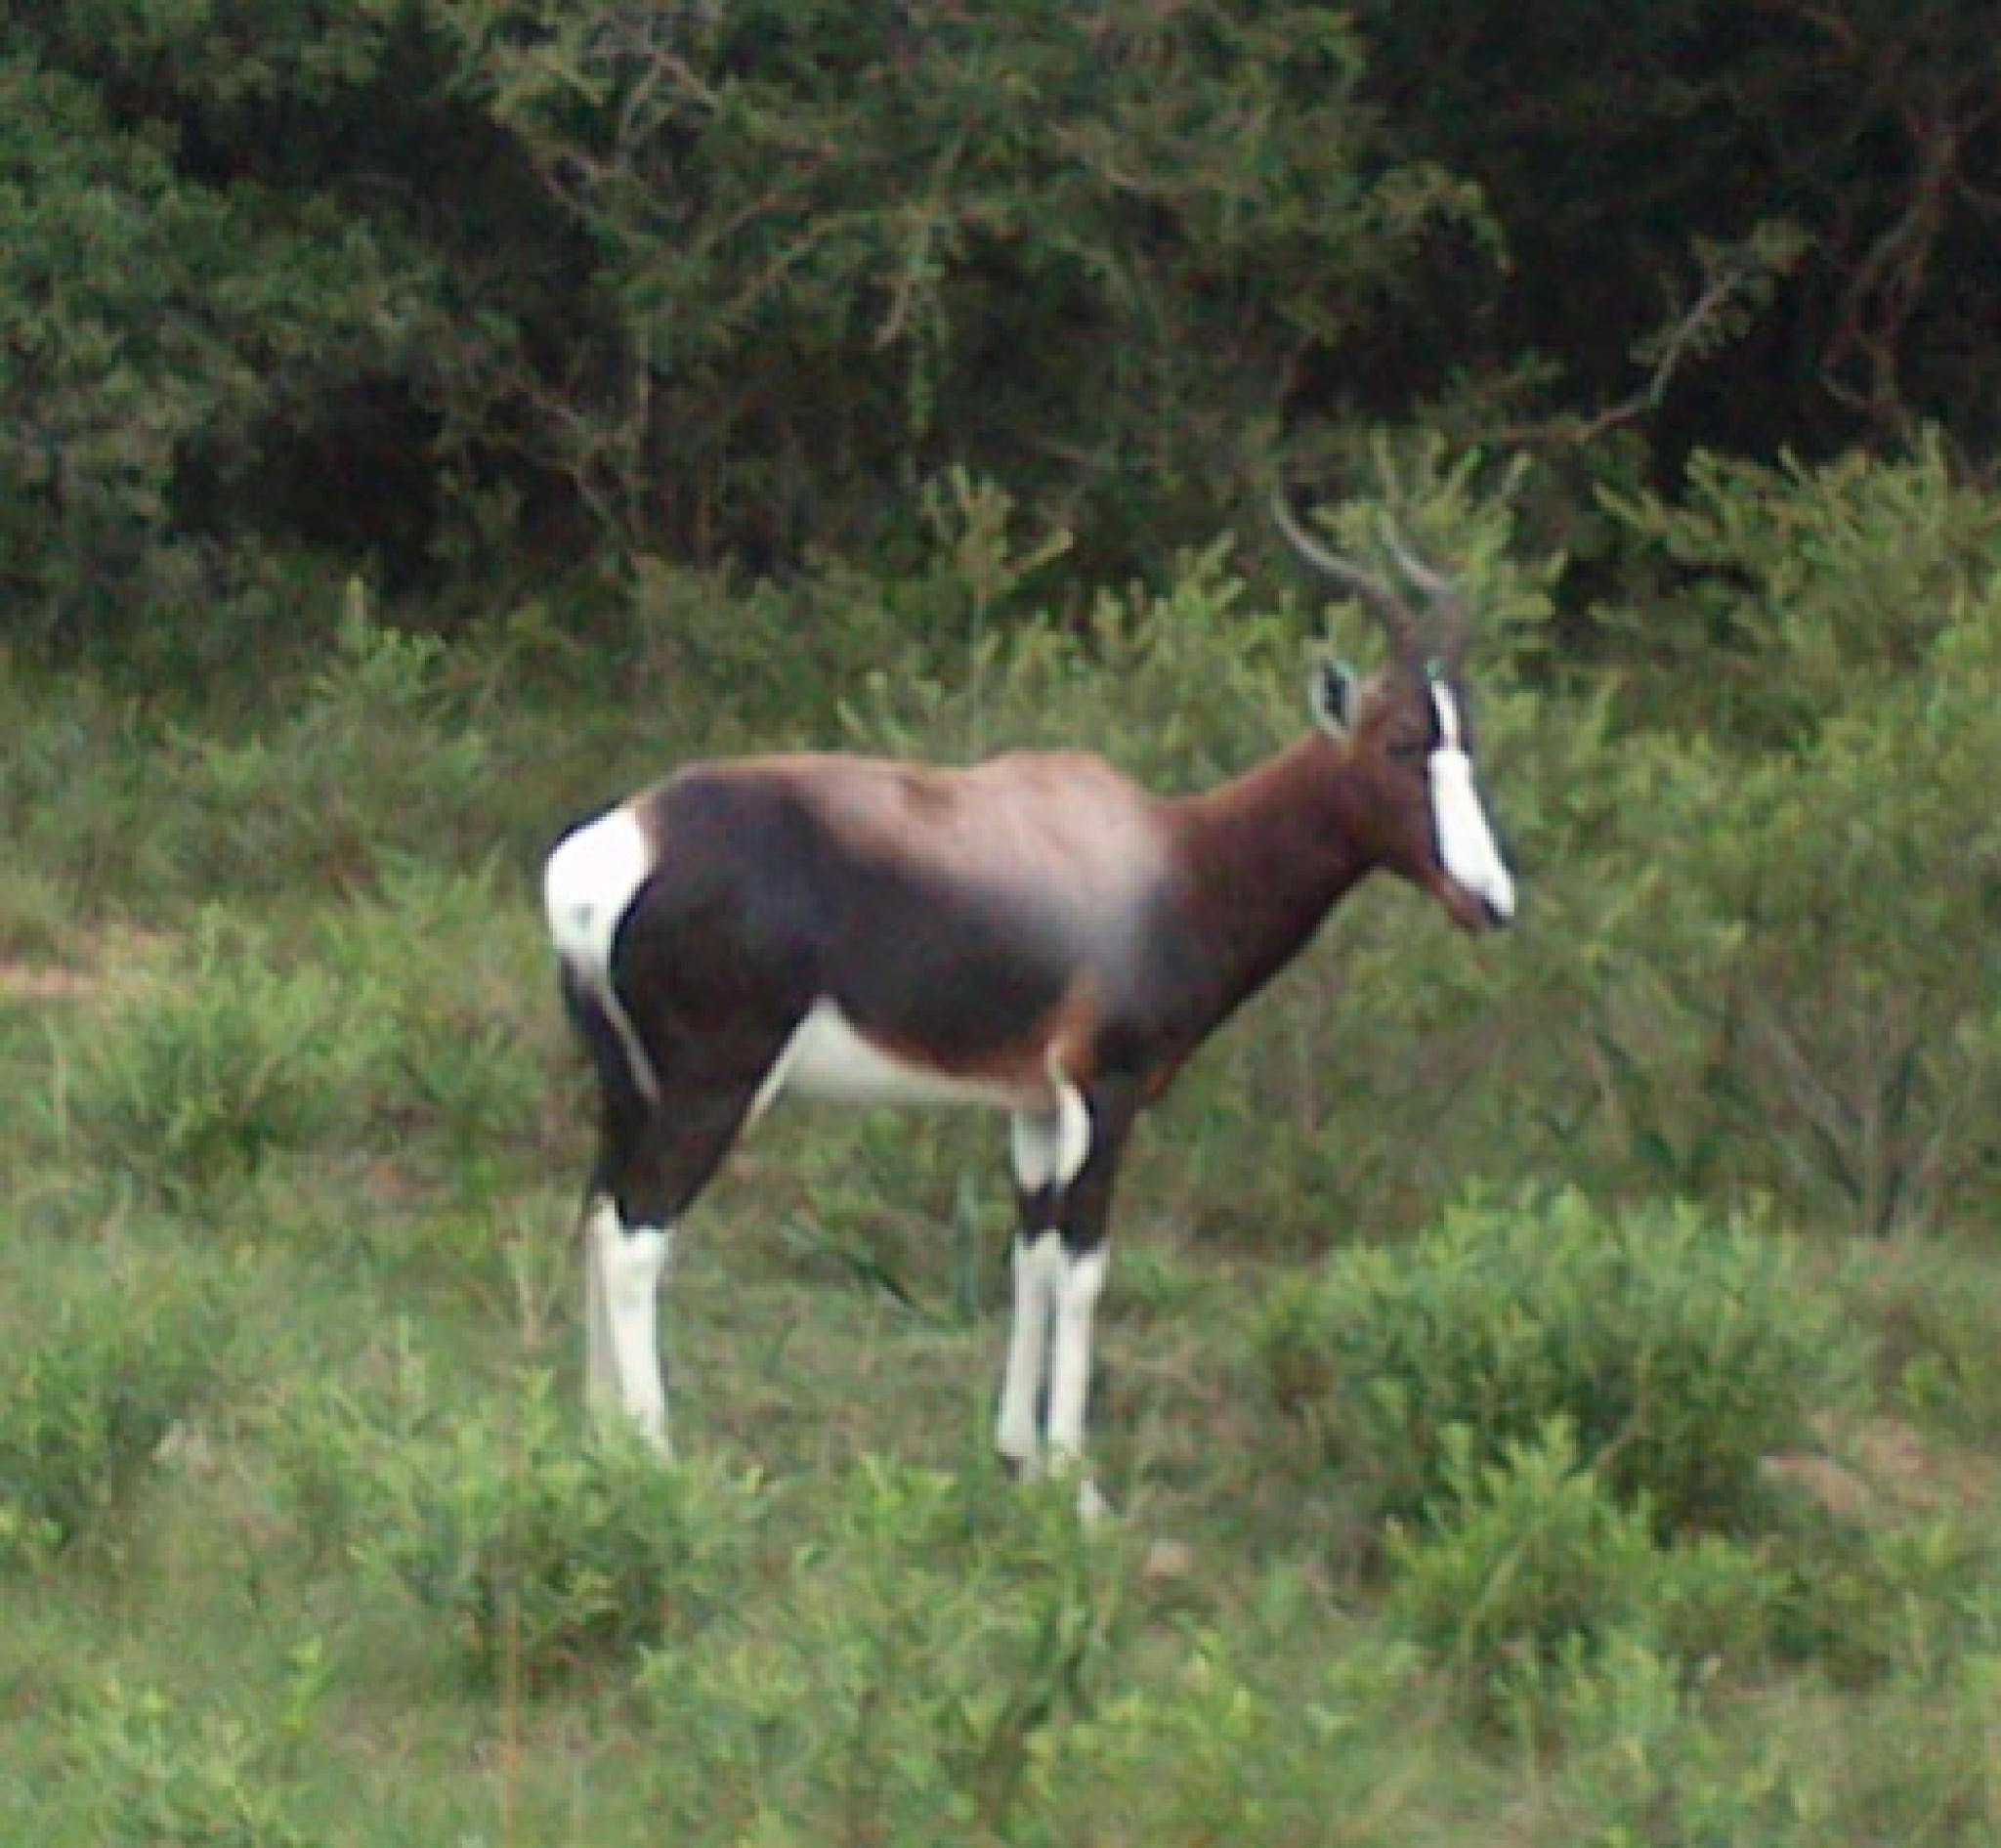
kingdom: Animalia
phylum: Chordata
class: Mammalia
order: Artiodactyla
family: Bovidae
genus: Damaliscus
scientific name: Damaliscus pygargus
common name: Bontebok
